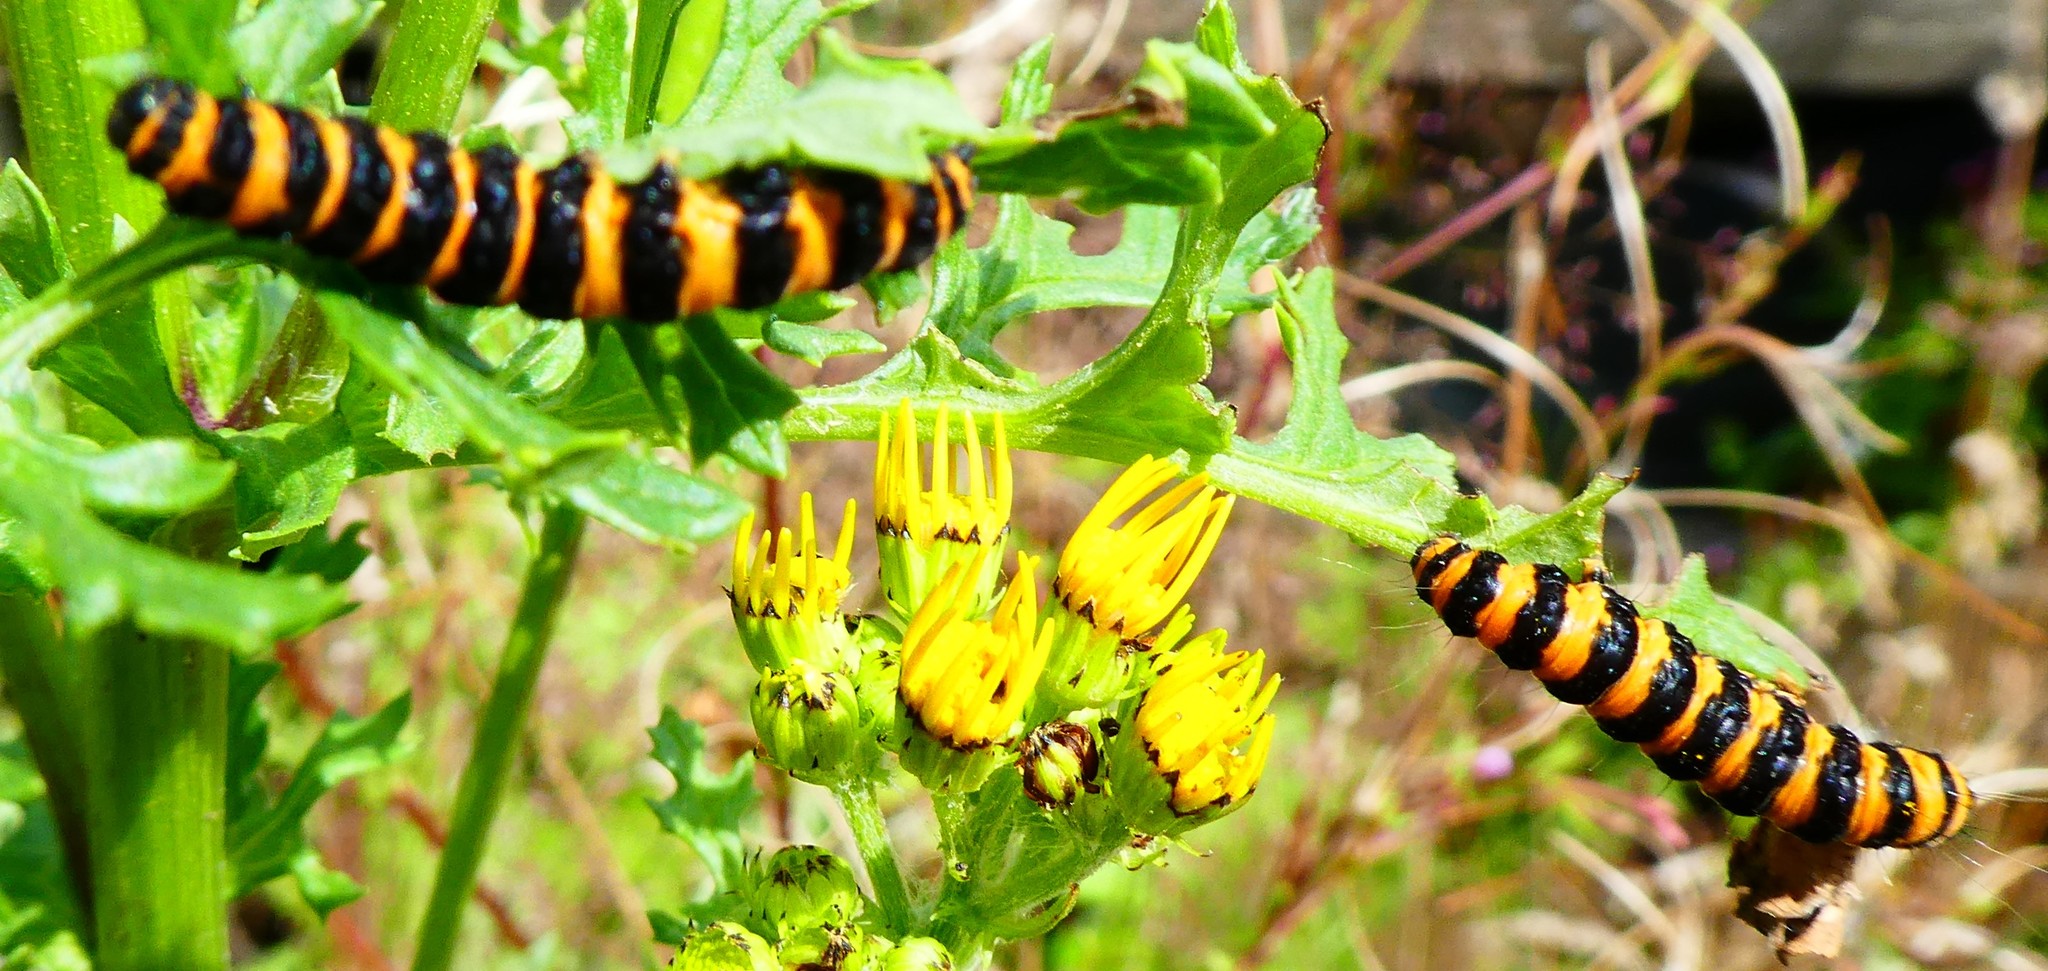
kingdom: Animalia
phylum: Arthropoda
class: Insecta
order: Lepidoptera
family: Erebidae
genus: Tyria
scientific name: Tyria jacobaeae
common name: Cinnabar
